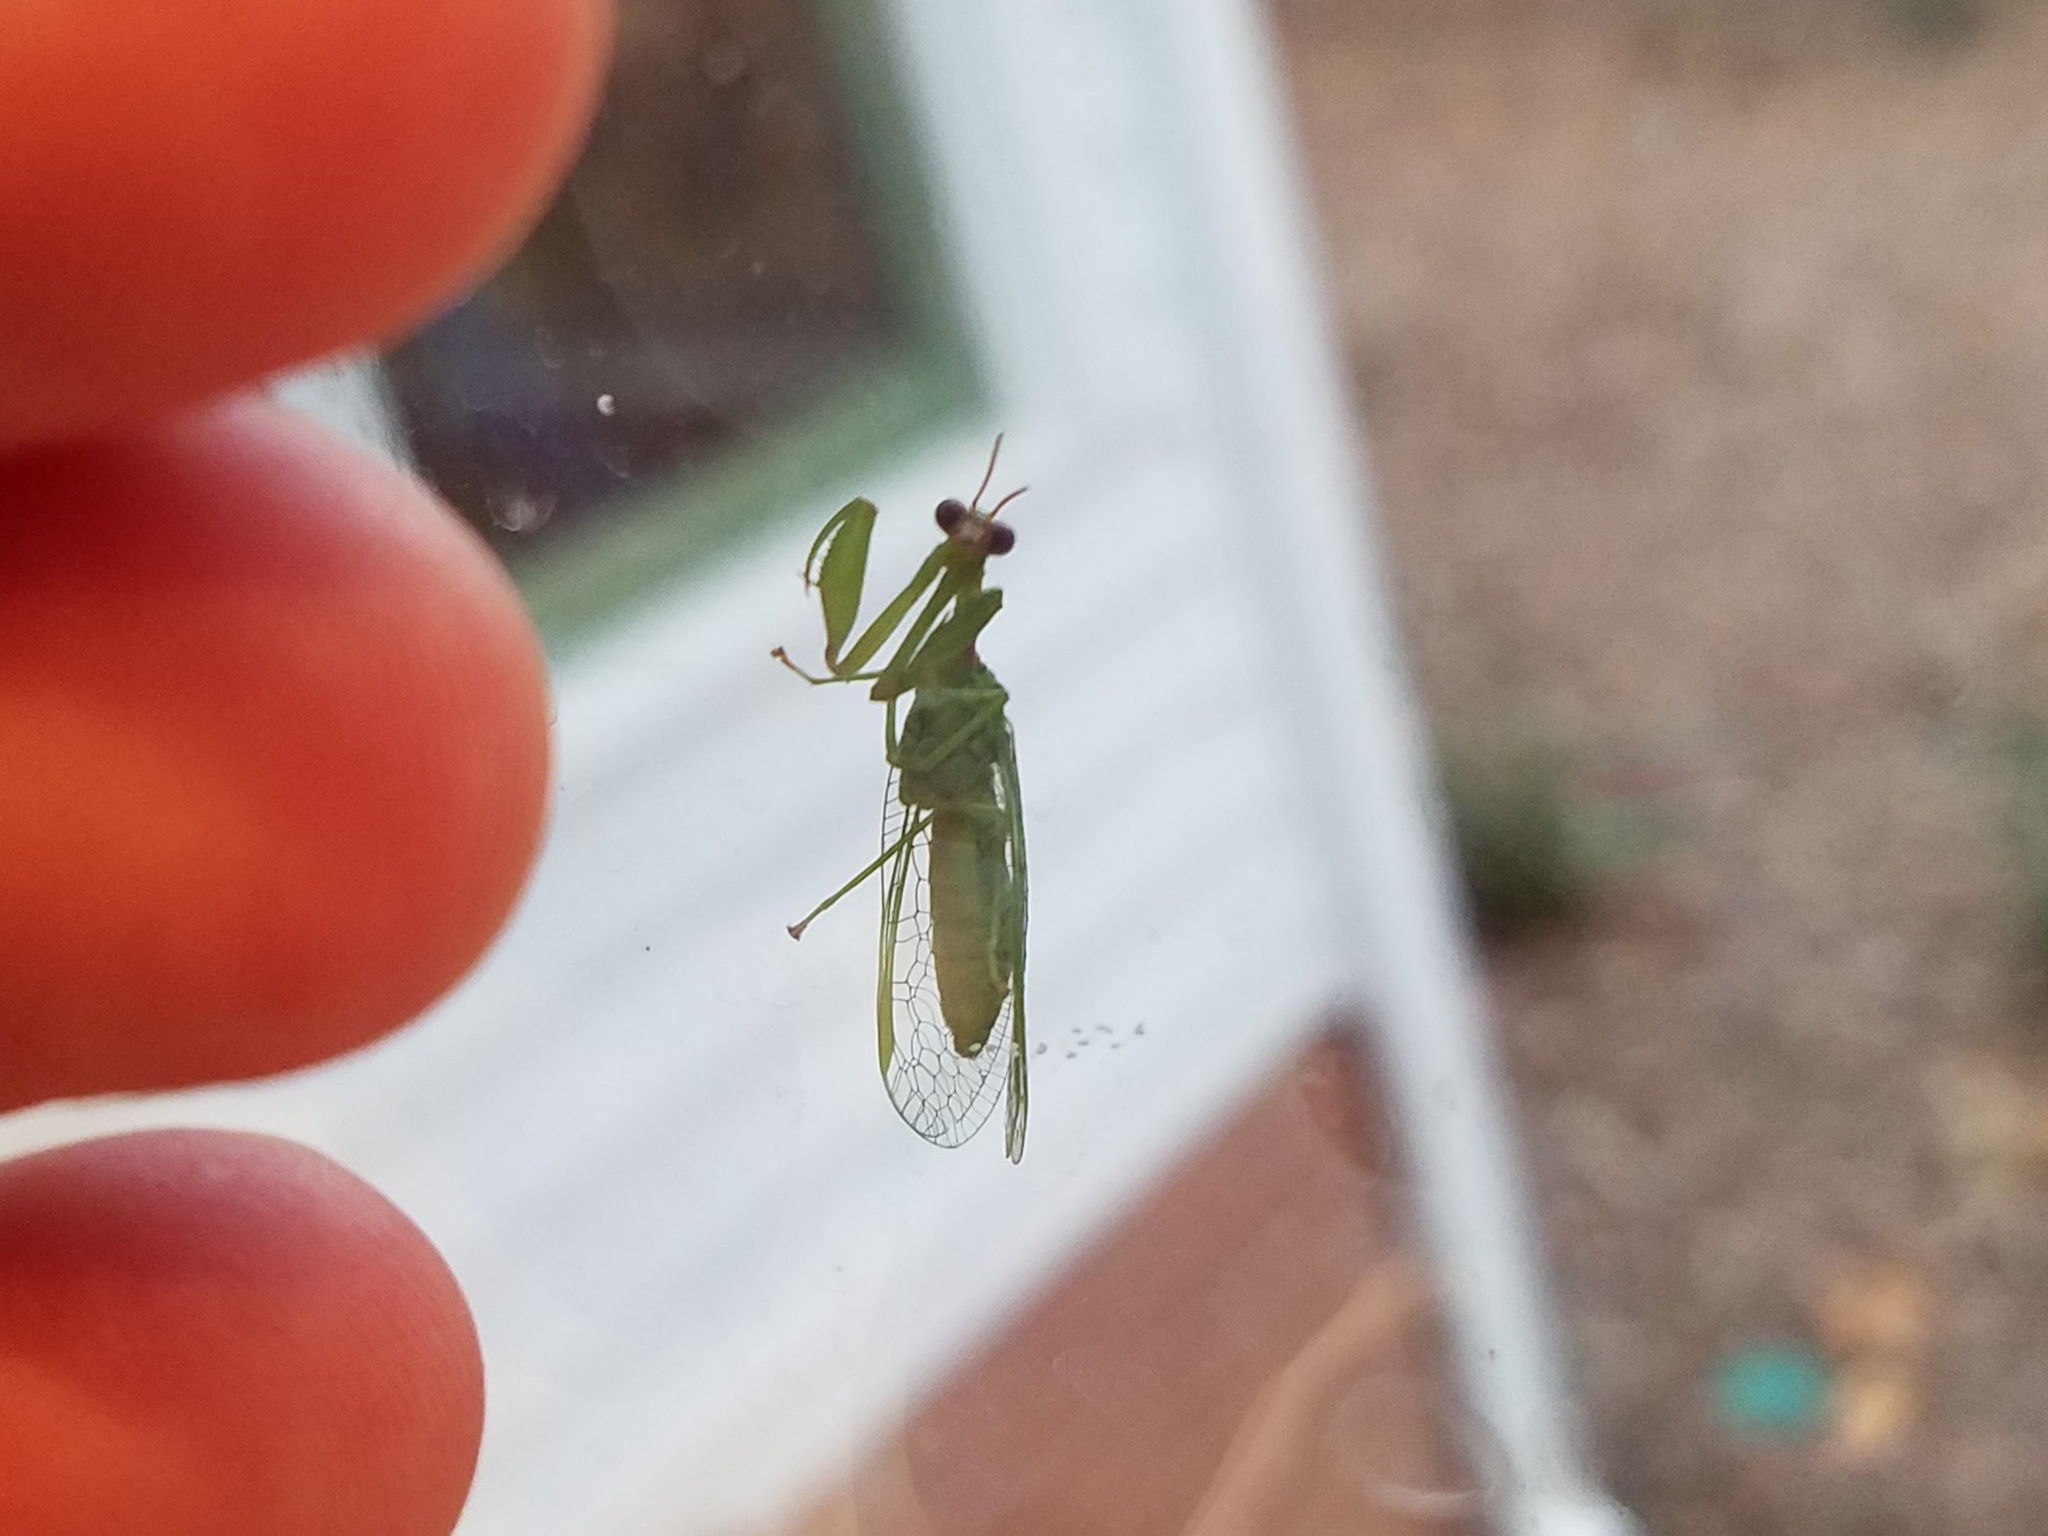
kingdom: Animalia
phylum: Arthropoda
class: Insecta
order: Neuroptera
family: Mantispidae
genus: Zeugomantispa
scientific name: Zeugomantispa minuta
